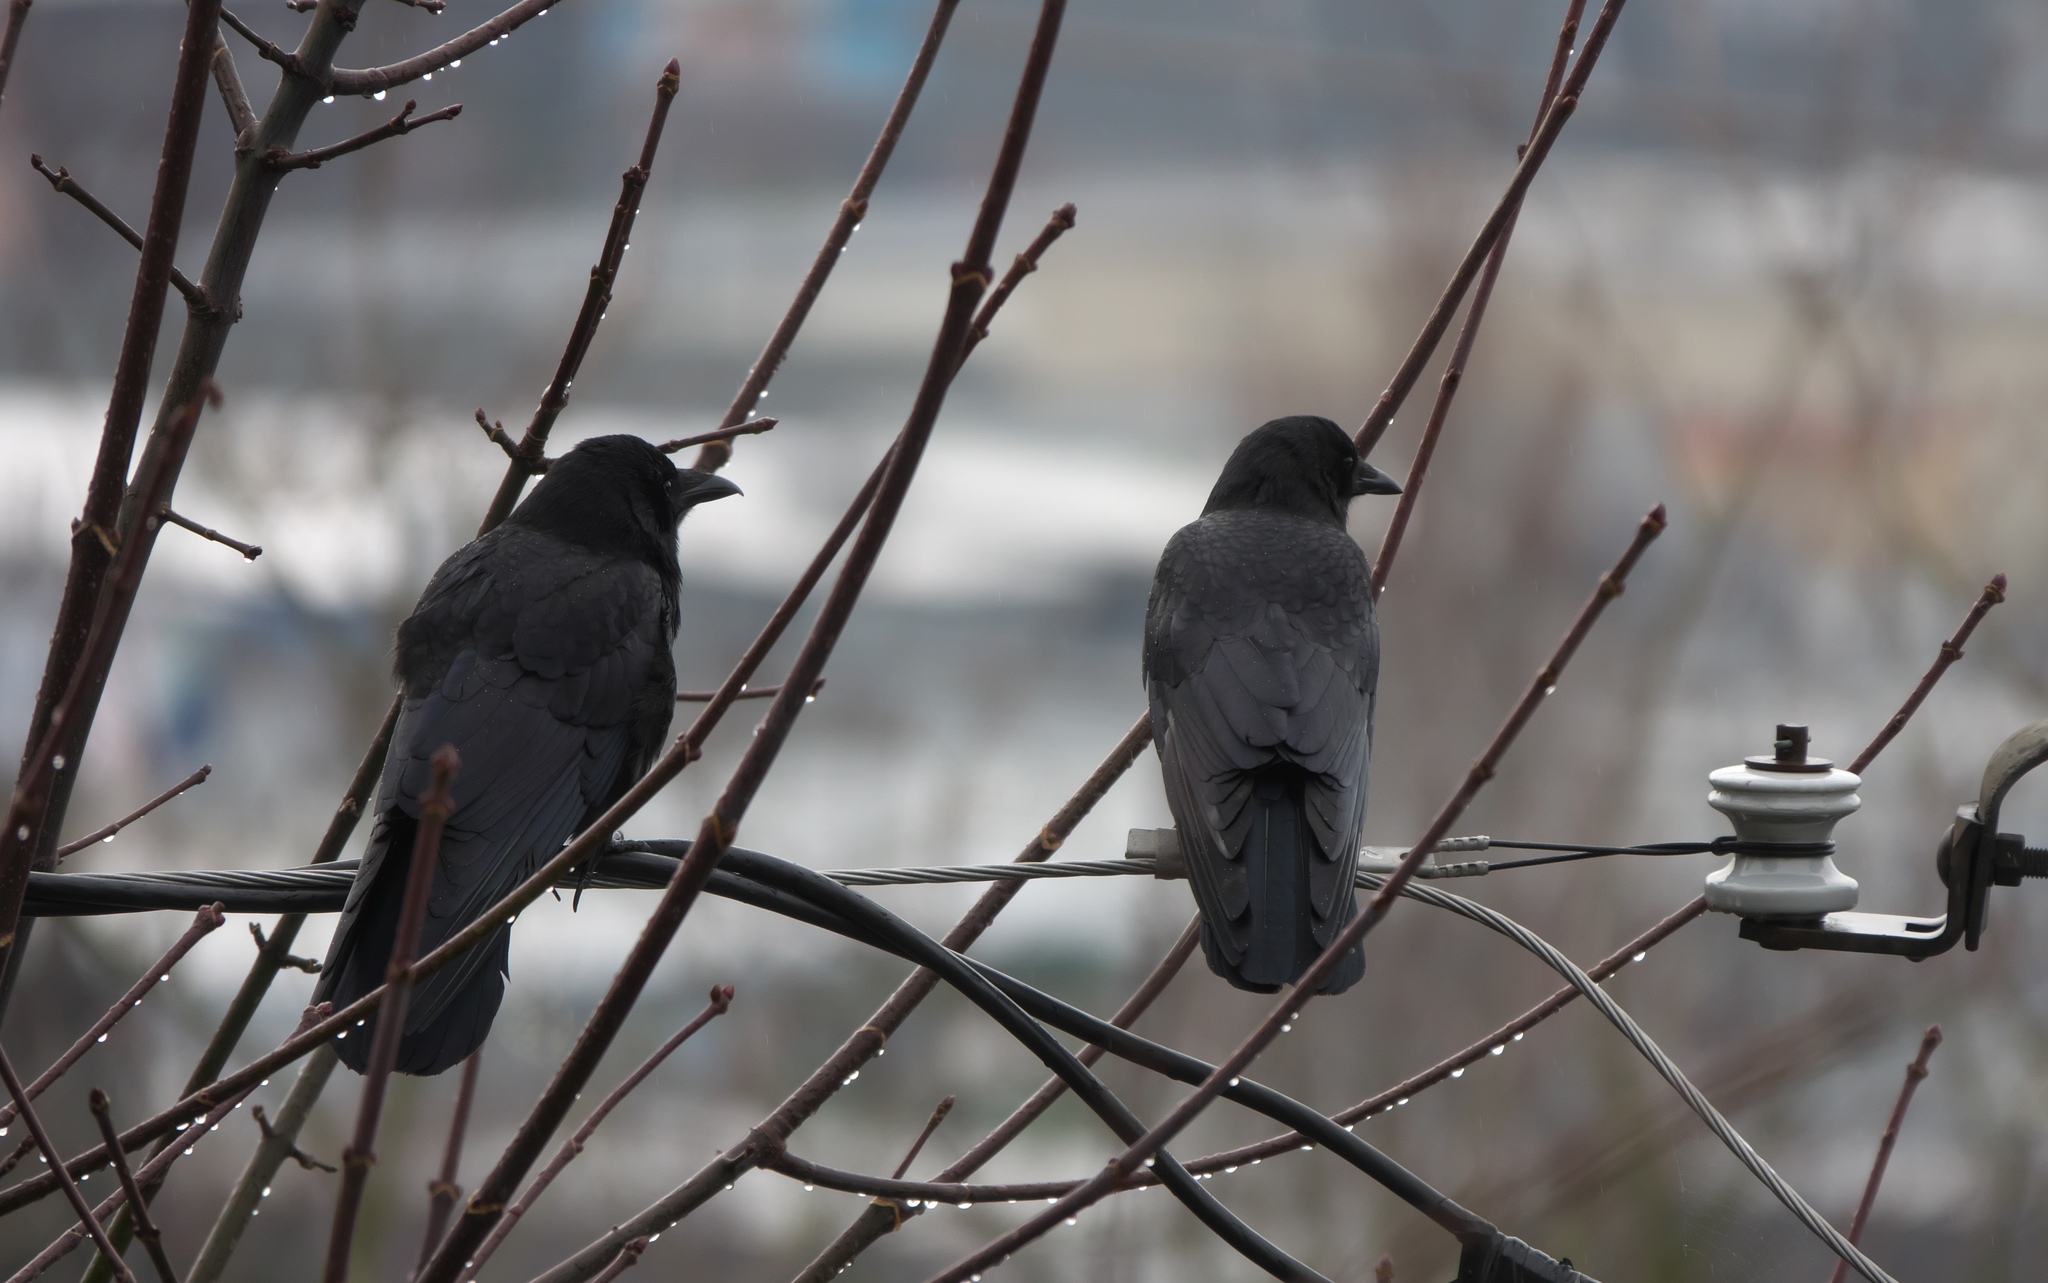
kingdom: Animalia
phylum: Chordata
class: Aves
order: Passeriformes
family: Corvidae
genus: Corvus
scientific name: Corvus brachyrhynchos
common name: American crow
